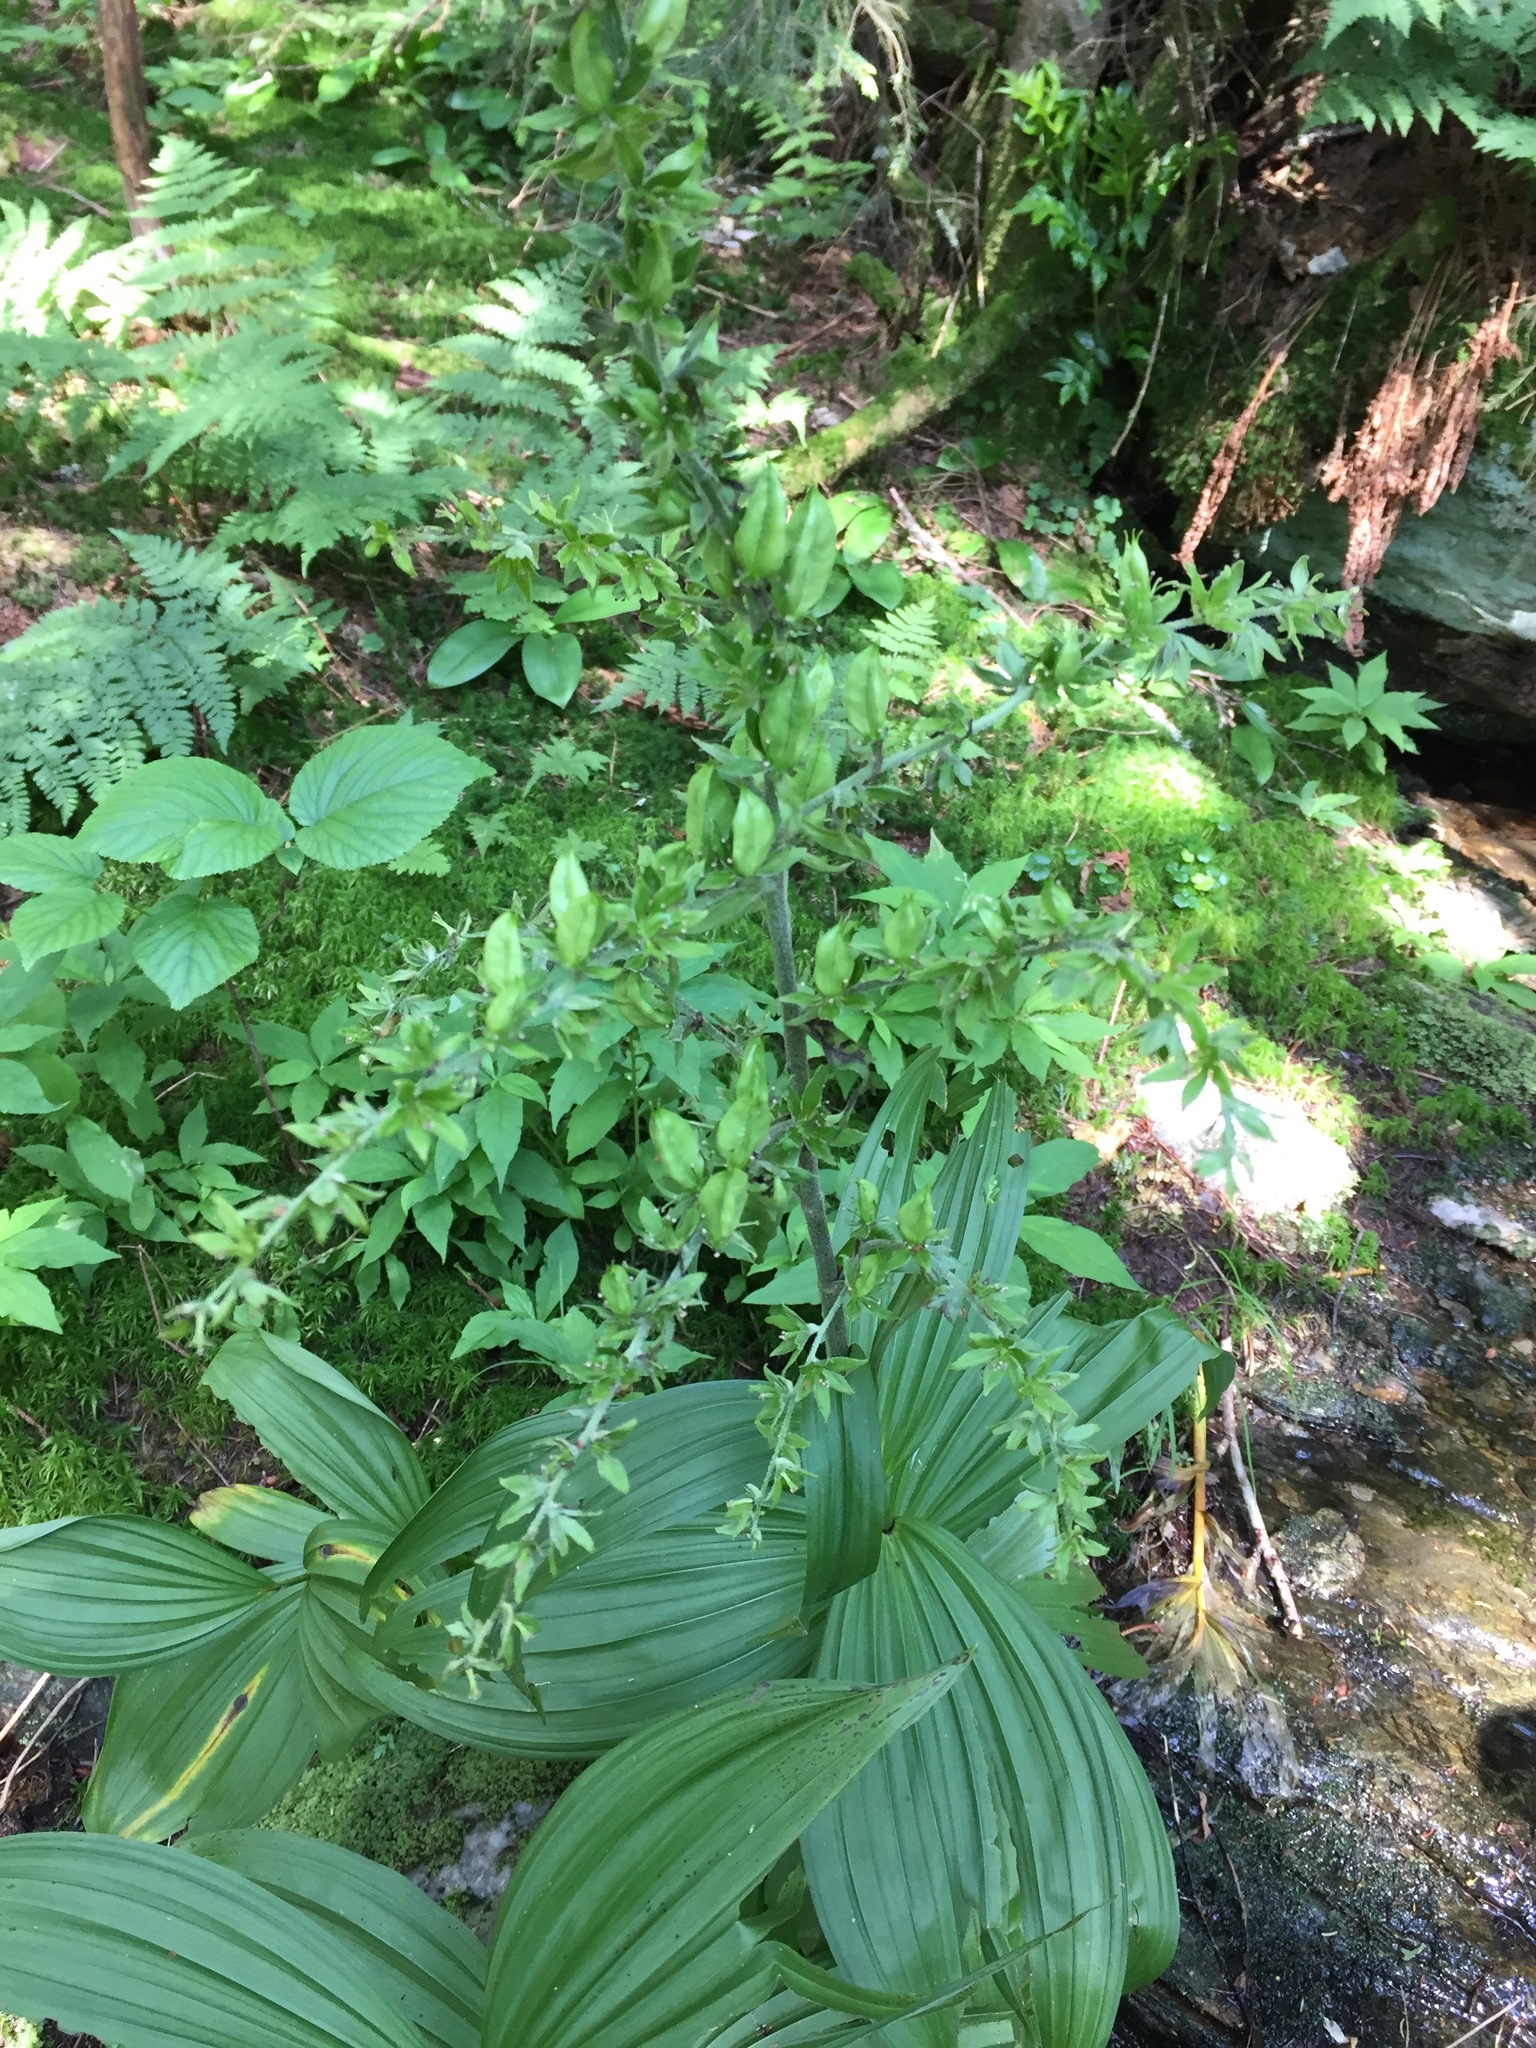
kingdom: Plantae
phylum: Tracheophyta
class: Liliopsida
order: Liliales
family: Melanthiaceae
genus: Veratrum
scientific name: Veratrum viride
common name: American false hellebore
